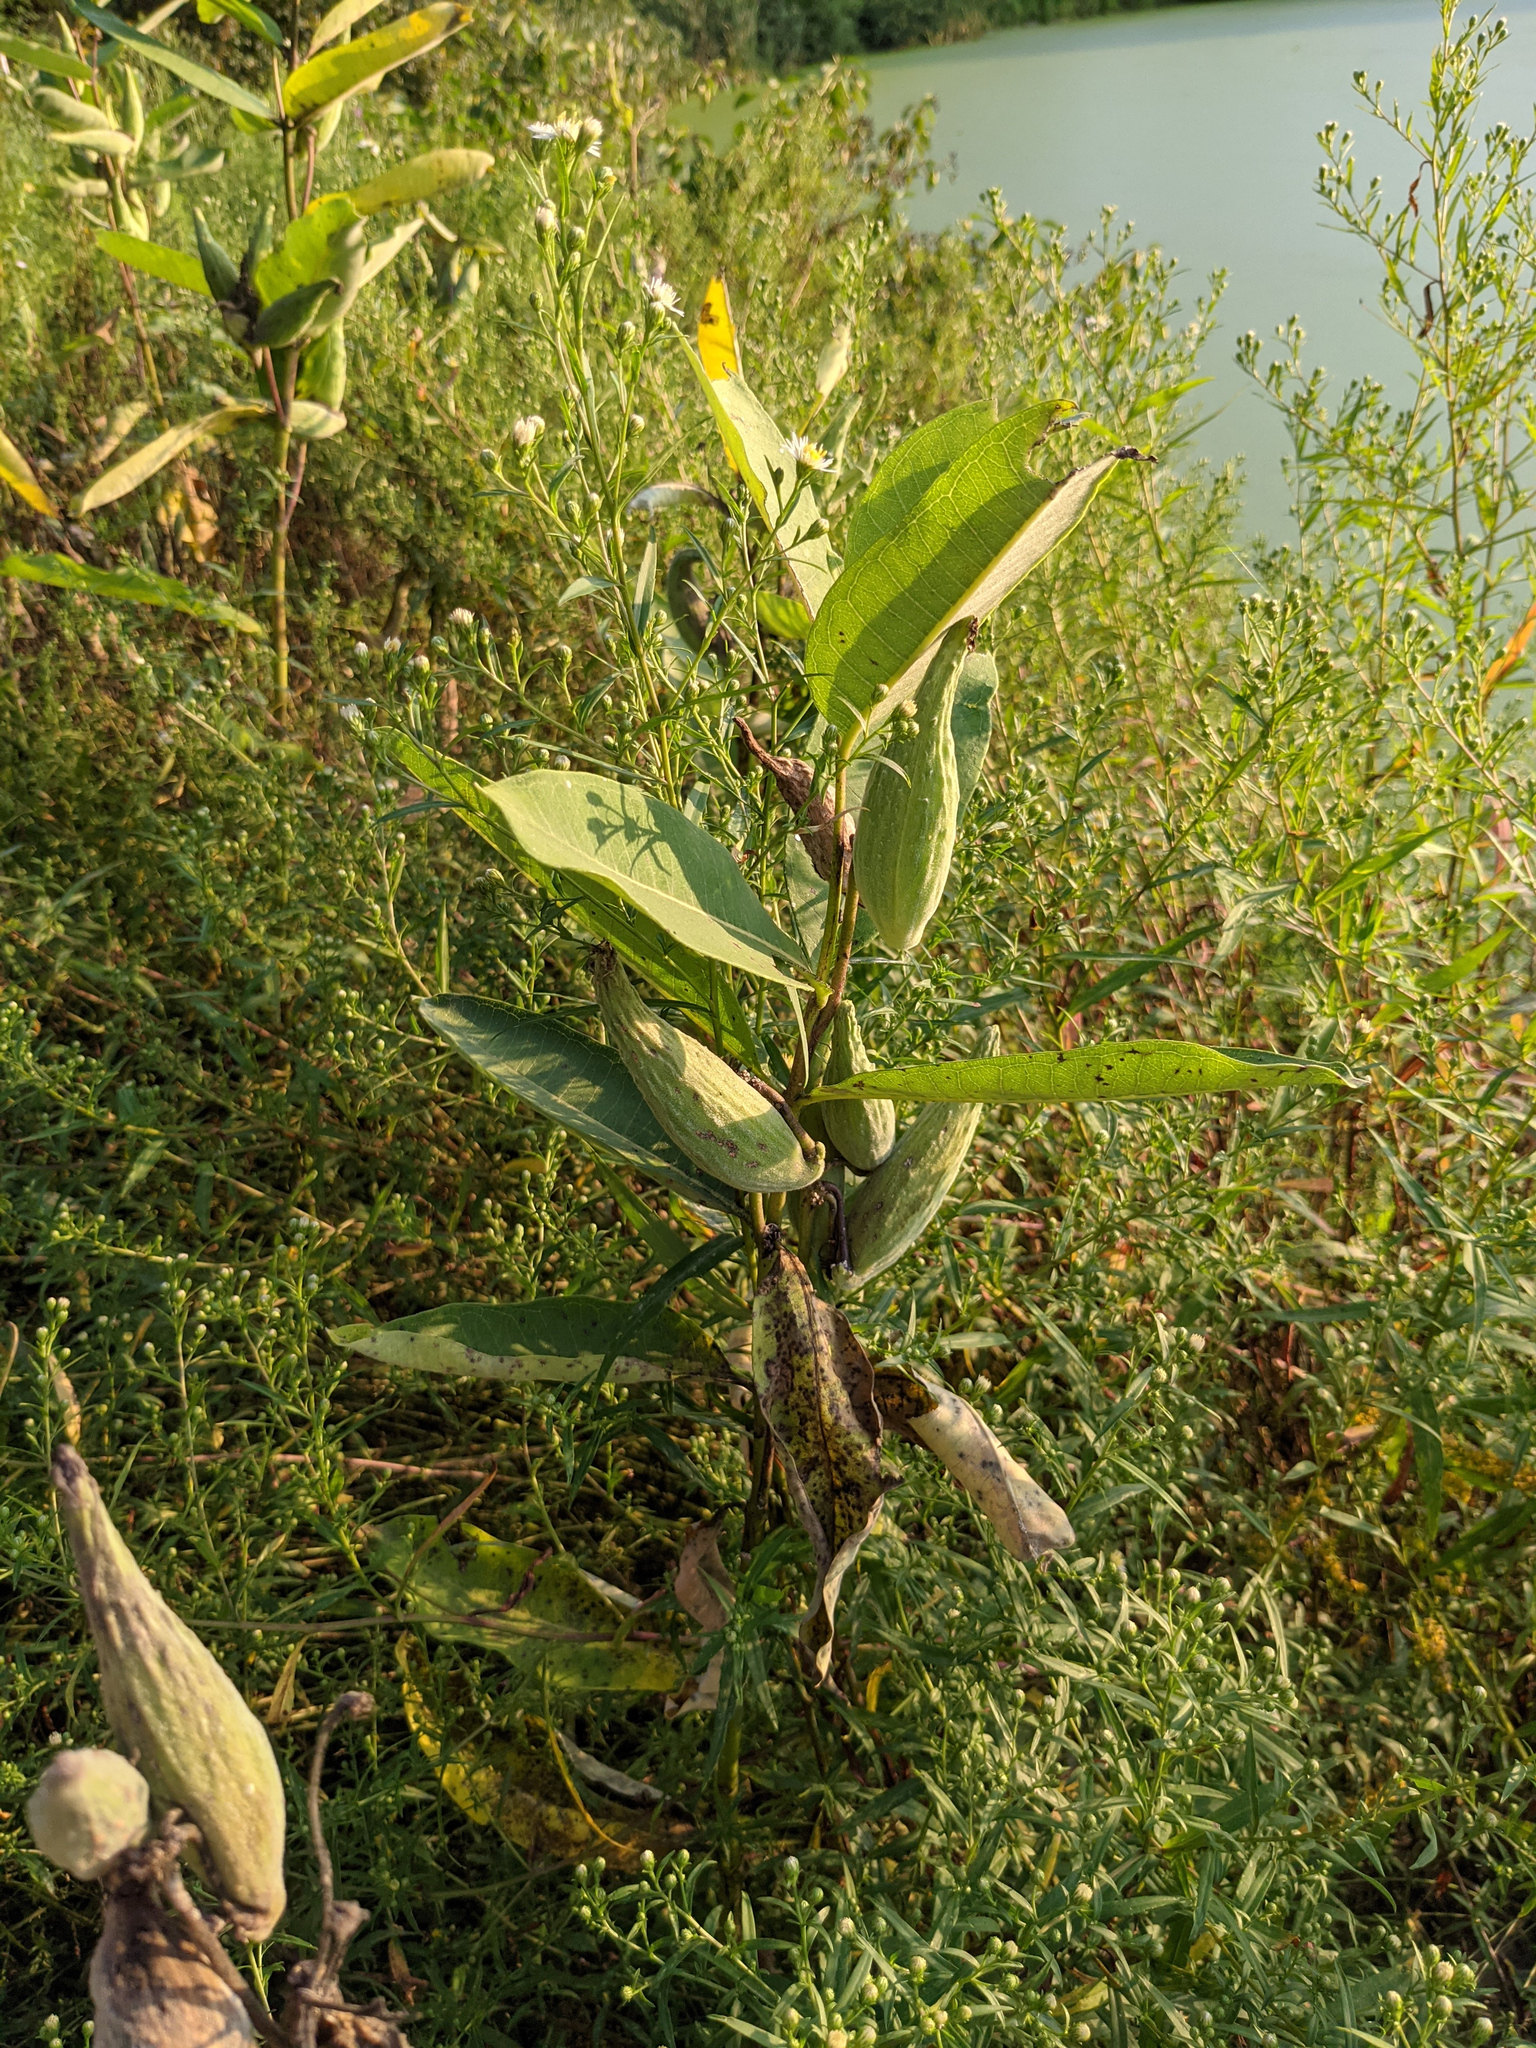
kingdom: Plantae
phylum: Tracheophyta
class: Magnoliopsida
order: Gentianales
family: Apocynaceae
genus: Asclepias
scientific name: Asclepias syriaca
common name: Common milkweed
